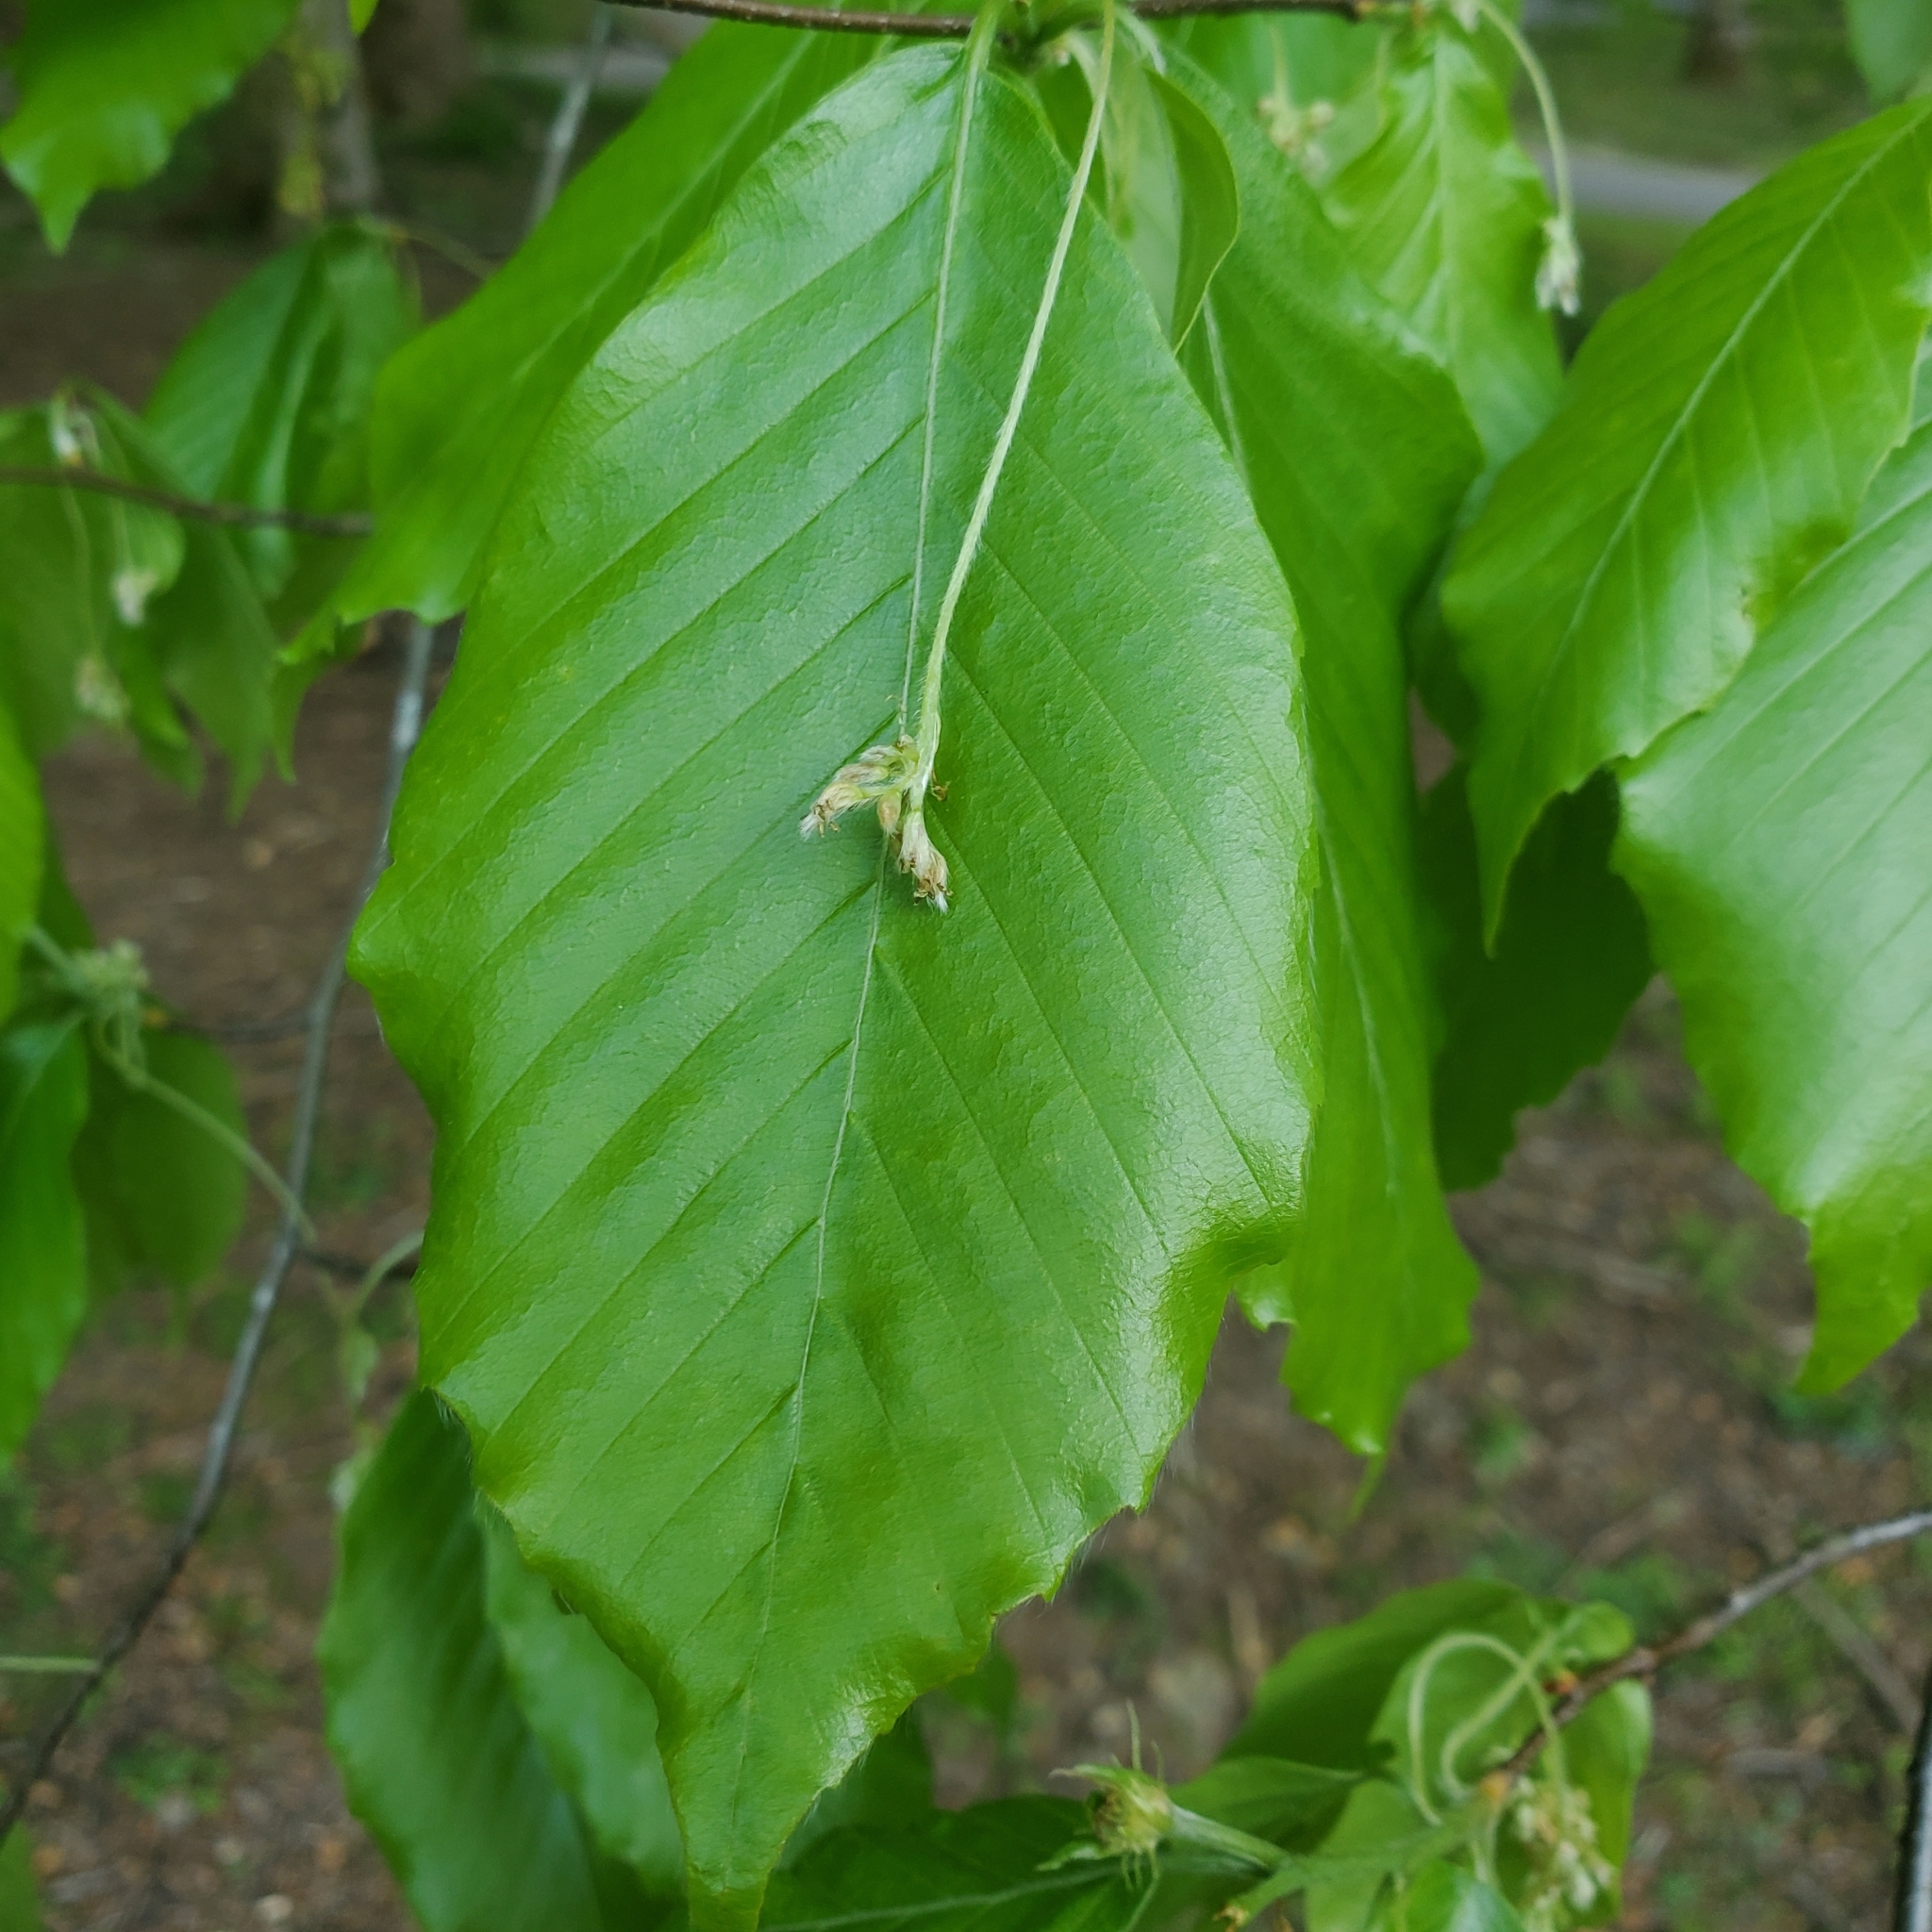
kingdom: Plantae
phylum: Tracheophyta
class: Magnoliopsida
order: Fagales
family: Fagaceae
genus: Fagus
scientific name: Fagus grandifolia
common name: American beech
